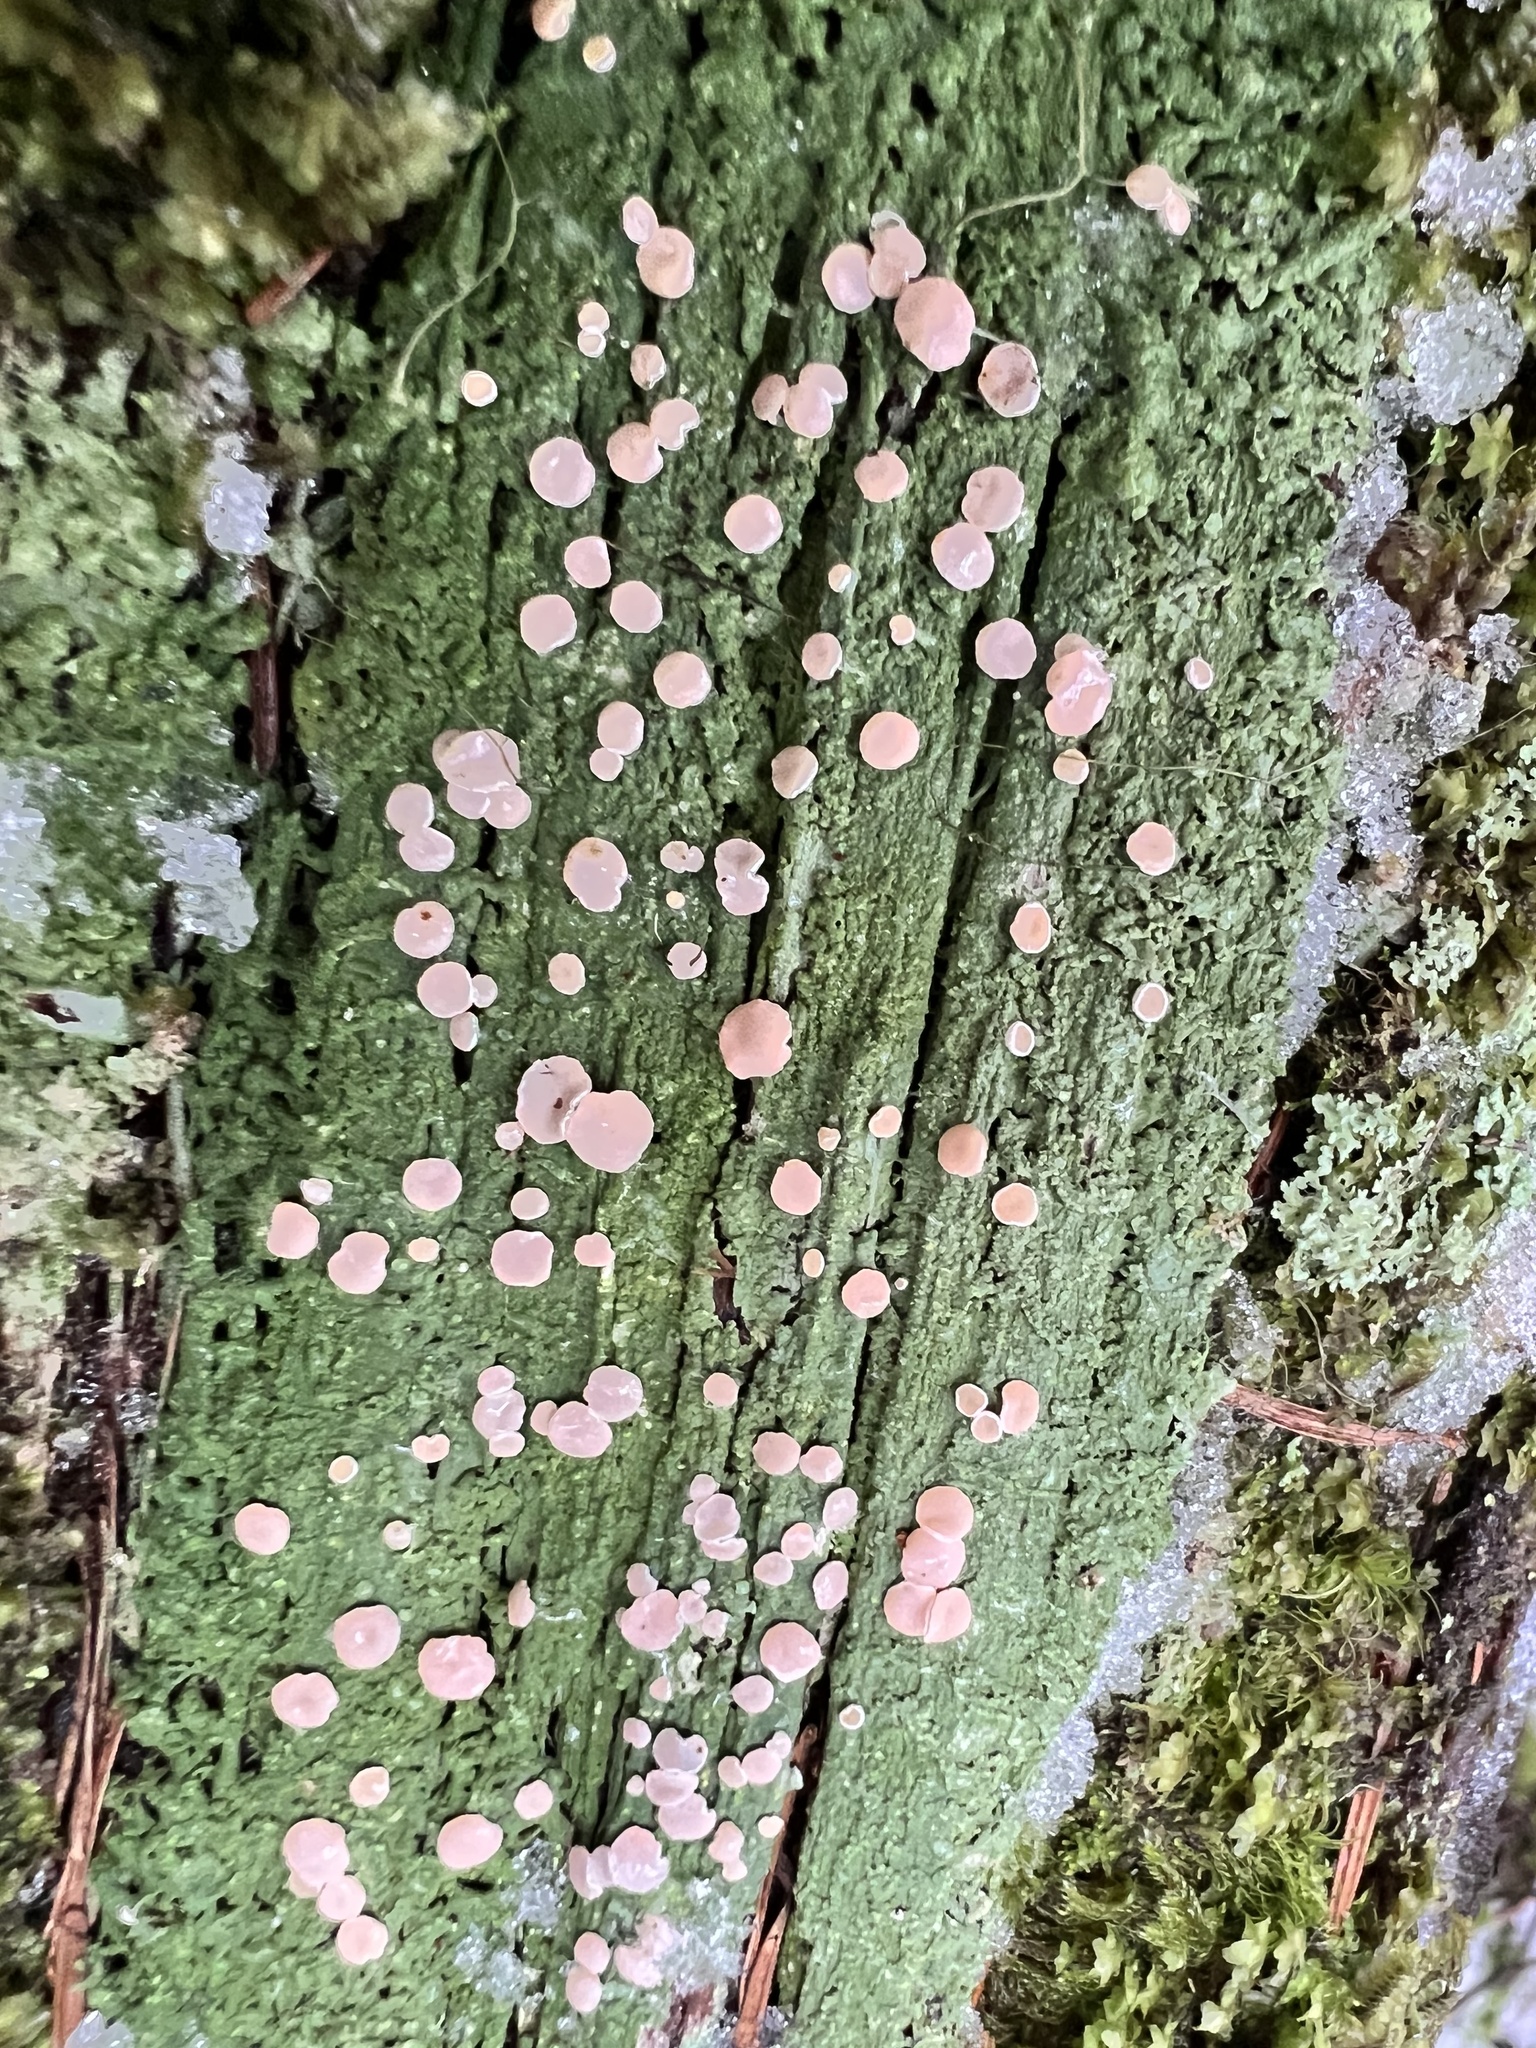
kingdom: Fungi
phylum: Ascomycota
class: Lecanoromycetes
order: Pertusariales
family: Icmadophilaceae
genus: Icmadophila
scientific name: Icmadophila ericetorum
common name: Candy lichen
